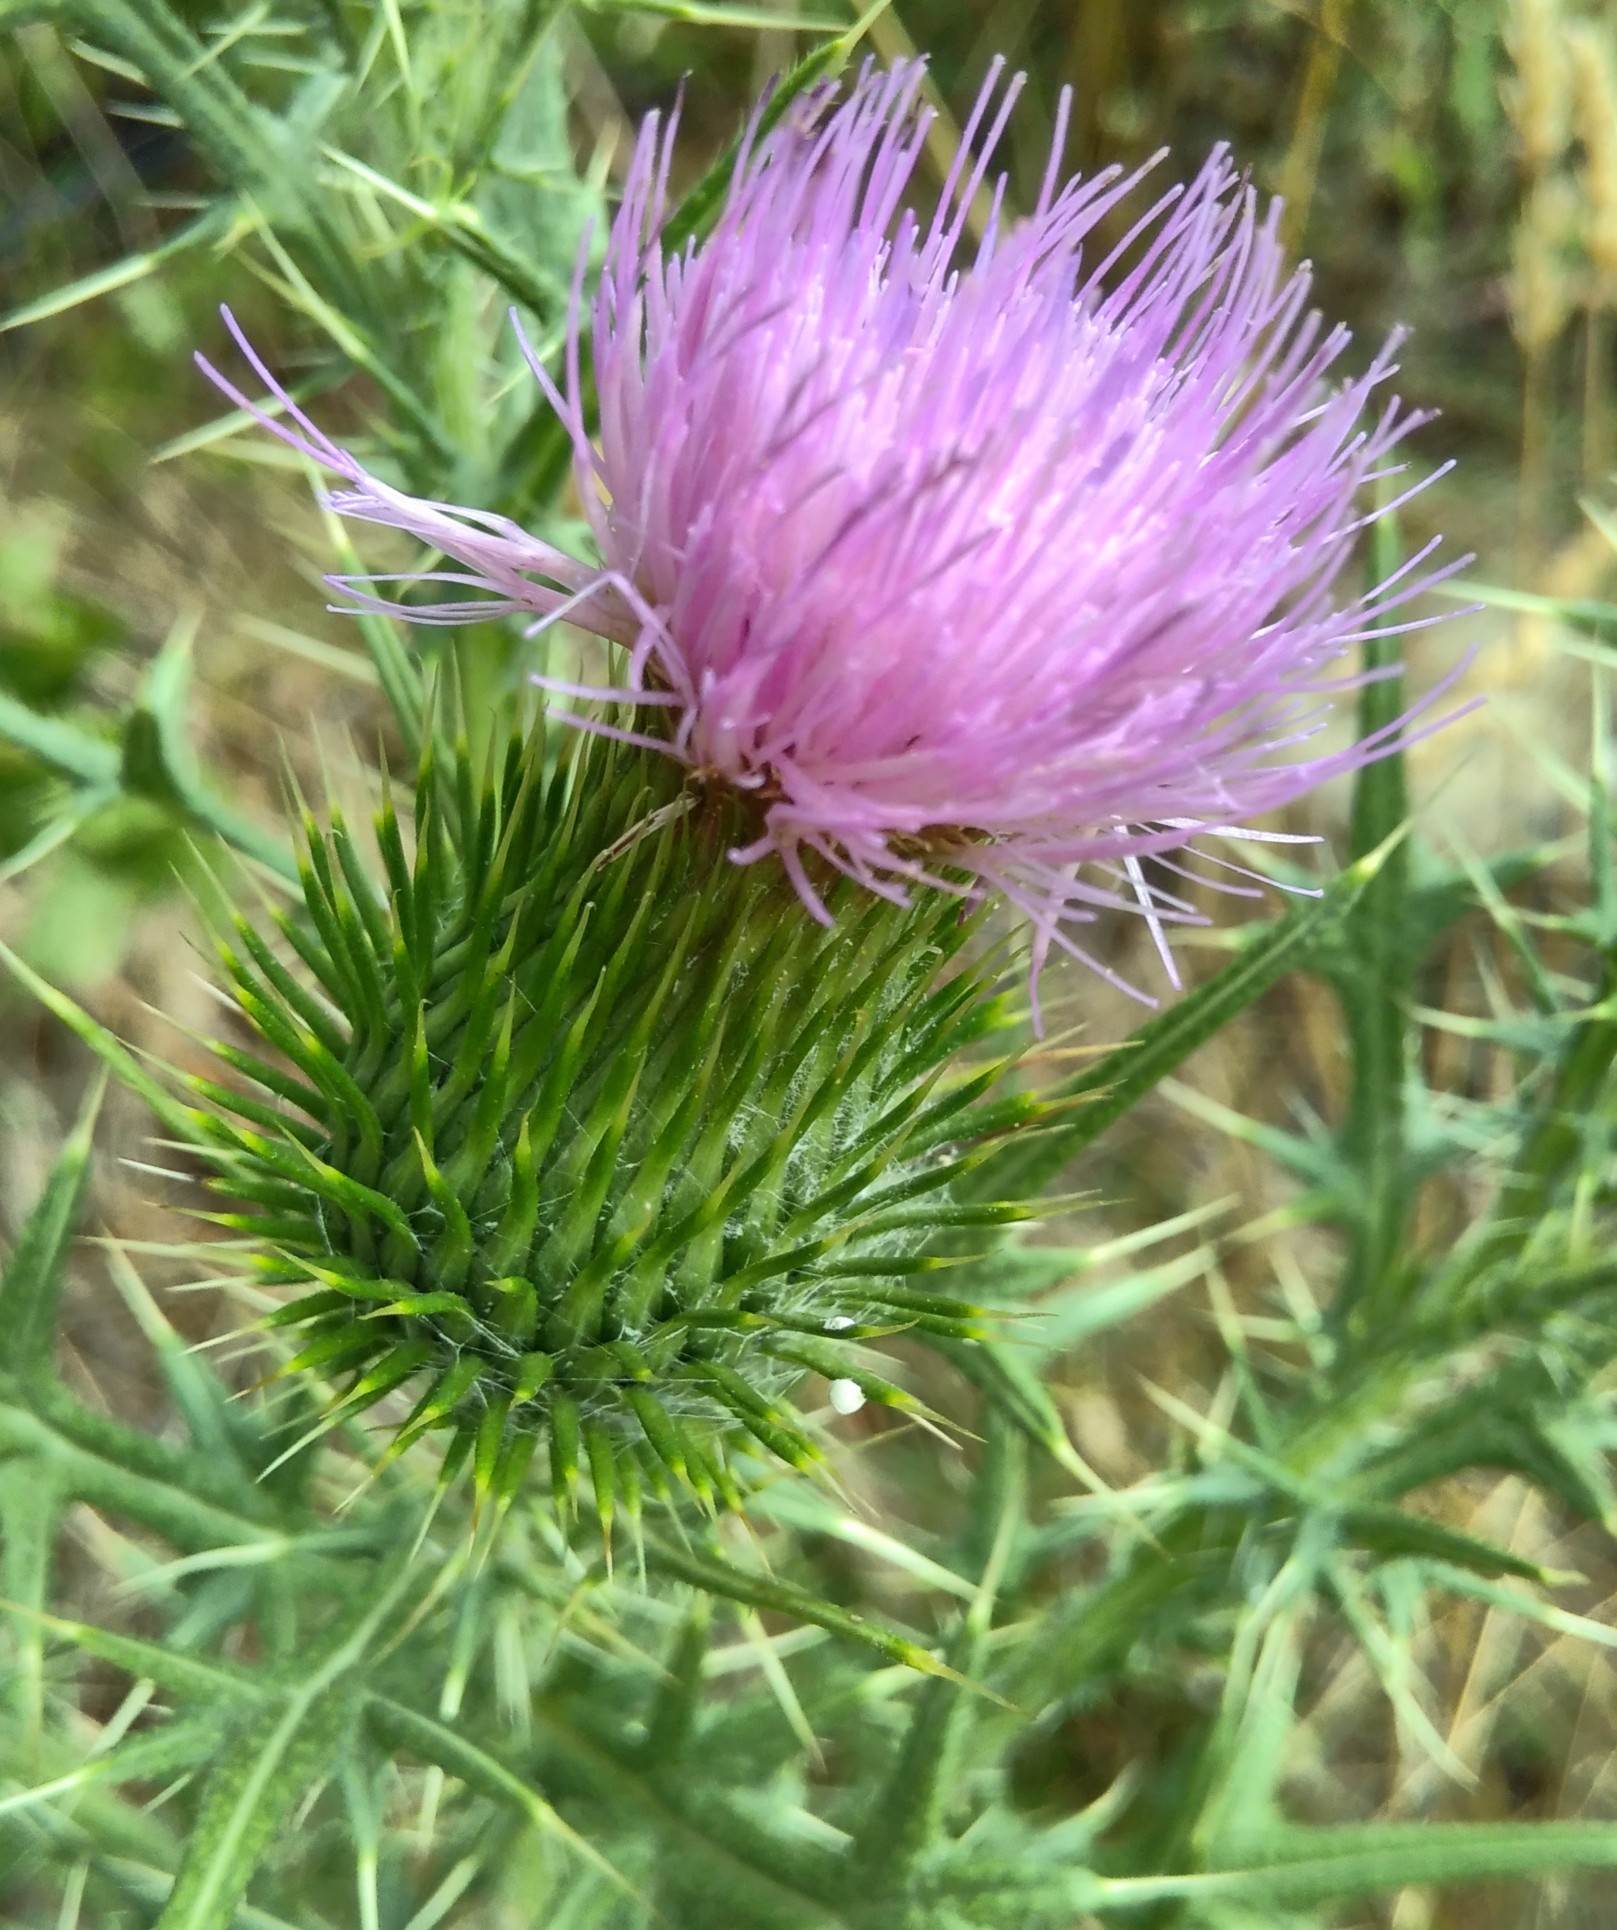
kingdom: Plantae
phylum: Tracheophyta
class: Magnoliopsida
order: Asterales
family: Asteraceae
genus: Cirsium
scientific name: Cirsium vulgare
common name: Bull thistle
